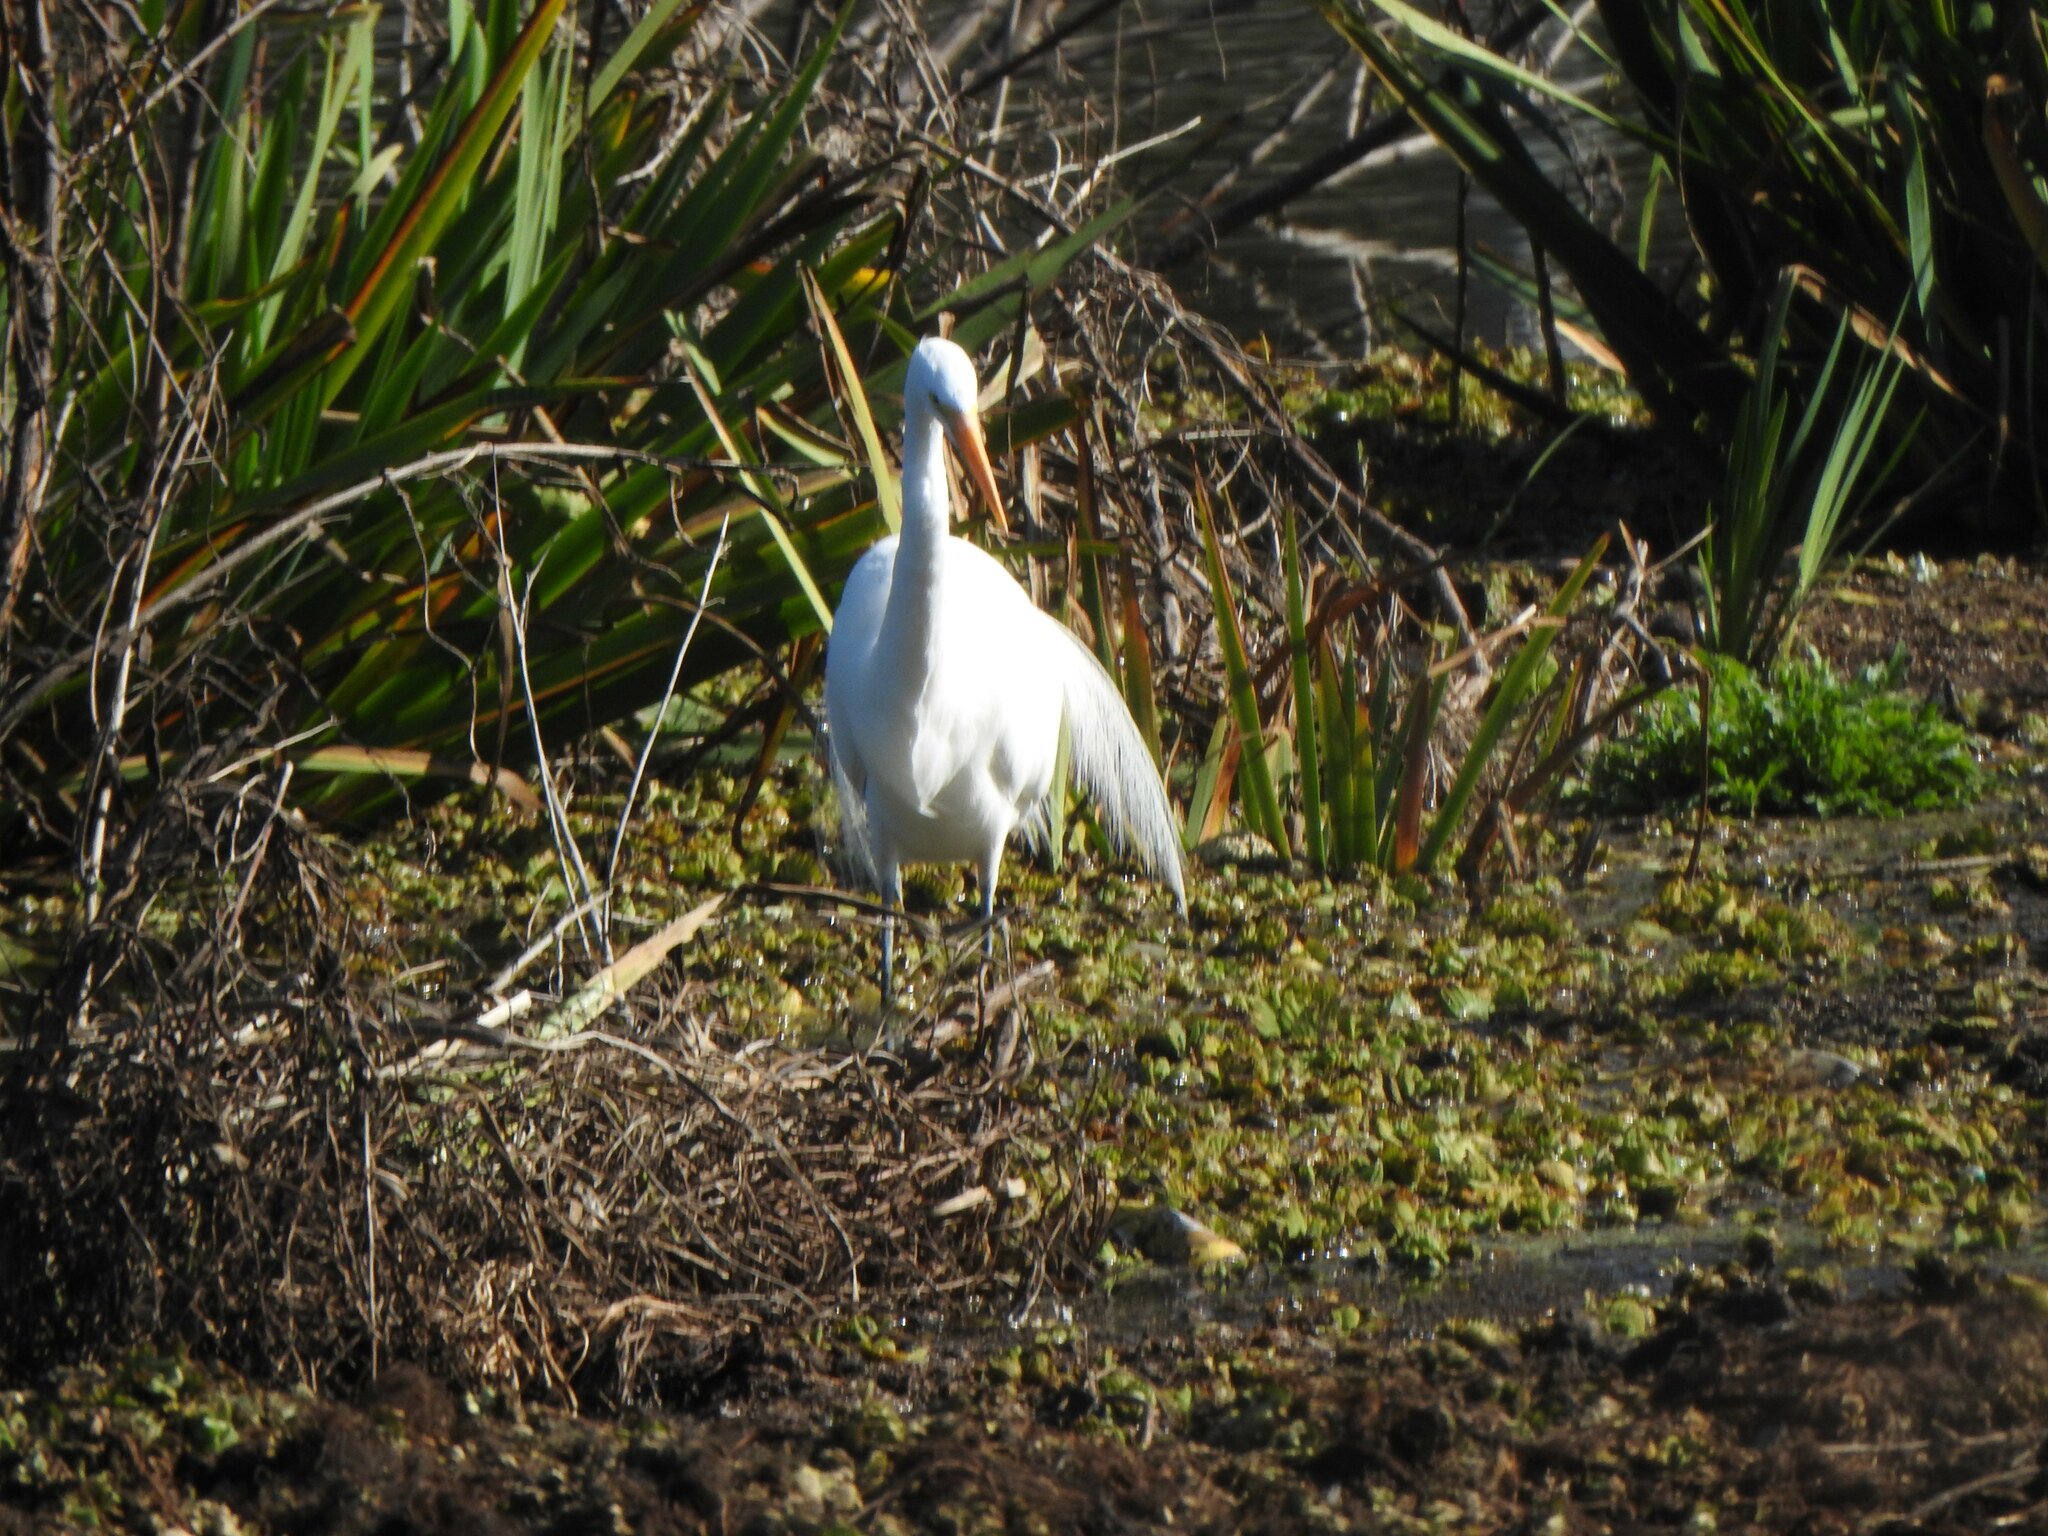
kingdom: Animalia
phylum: Chordata
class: Aves
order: Pelecaniformes
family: Ardeidae
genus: Ardea
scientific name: Ardea alba
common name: Great egret
